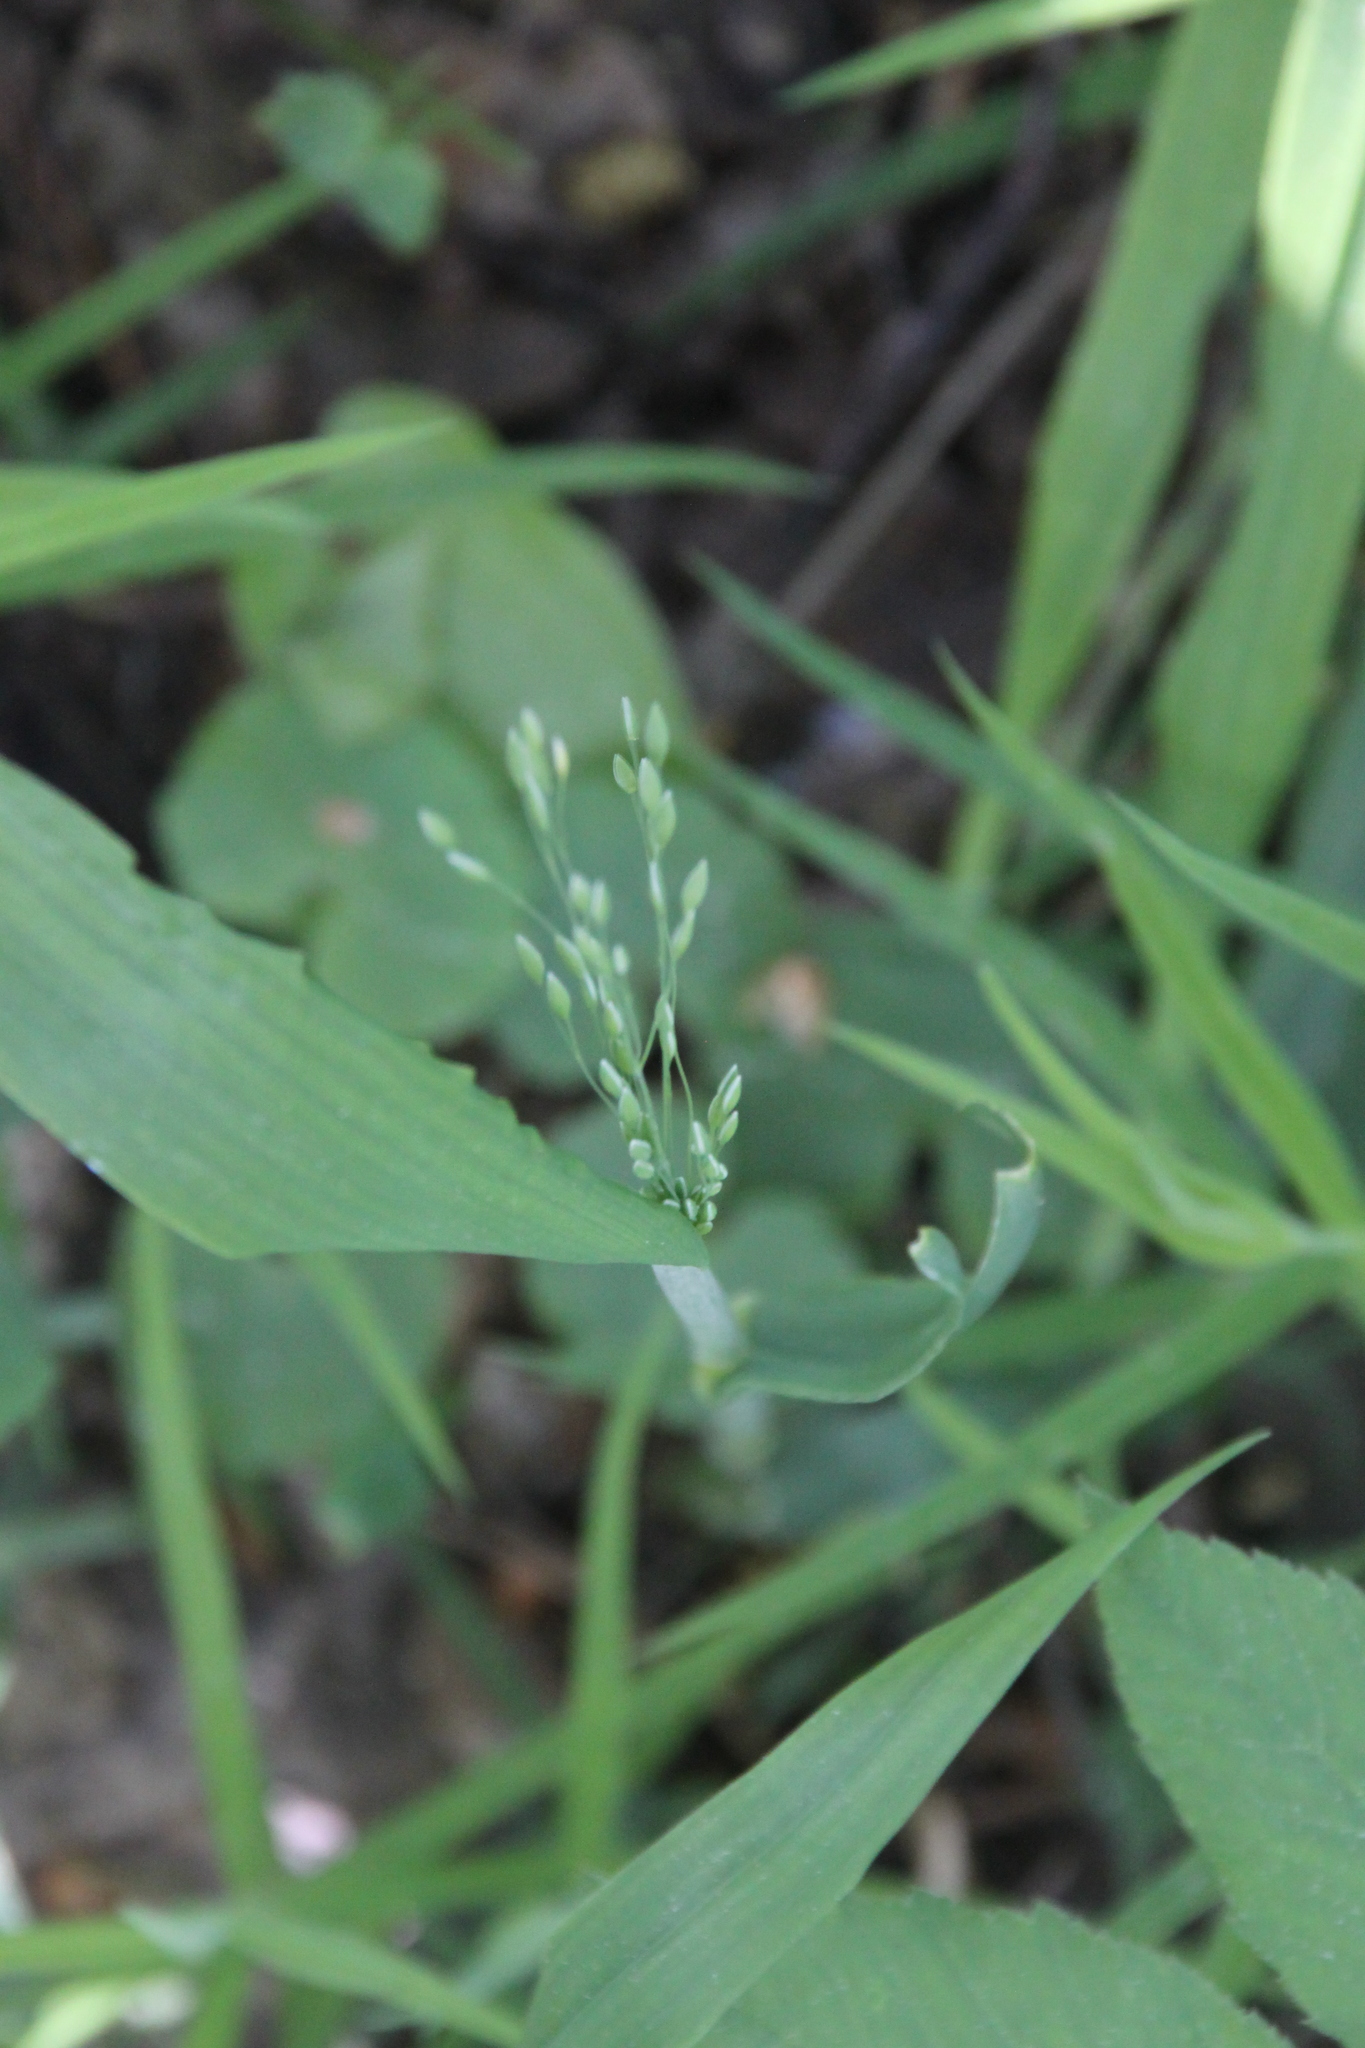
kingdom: Plantae
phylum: Tracheophyta
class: Liliopsida
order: Poales
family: Poaceae
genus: Milium
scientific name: Milium effusum
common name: Wood millet
